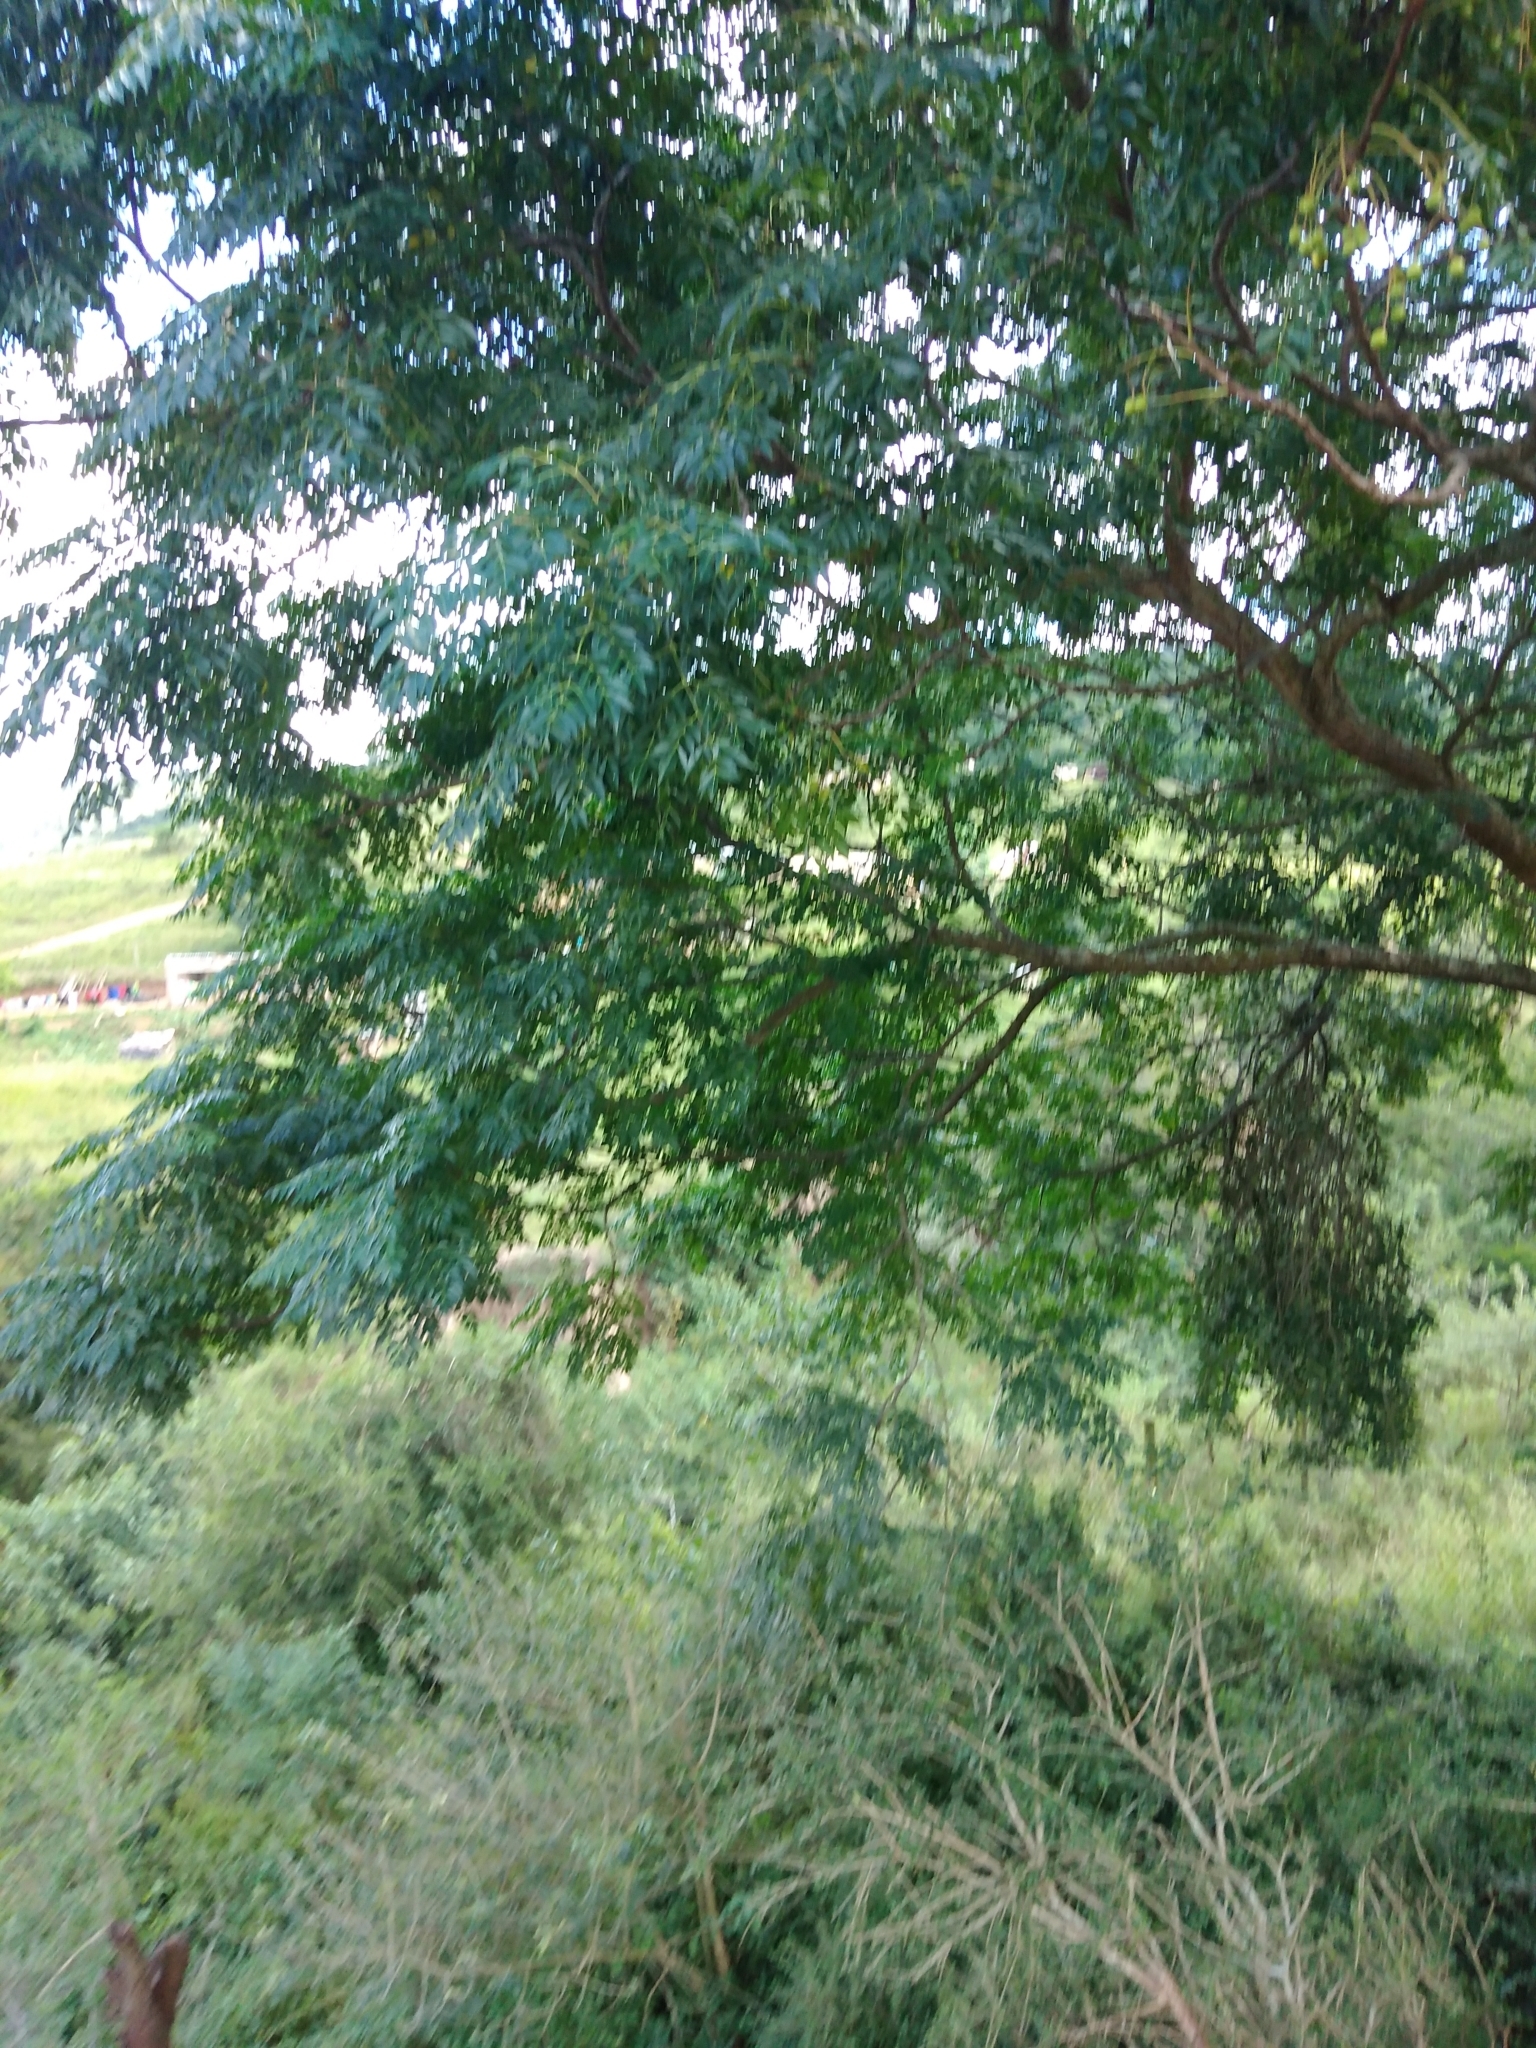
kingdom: Plantae
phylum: Tracheophyta
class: Magnoliopsida
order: Sapindales
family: Meliaceae
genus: Melia
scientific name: Melia azedarach
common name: Chinaberrytree
